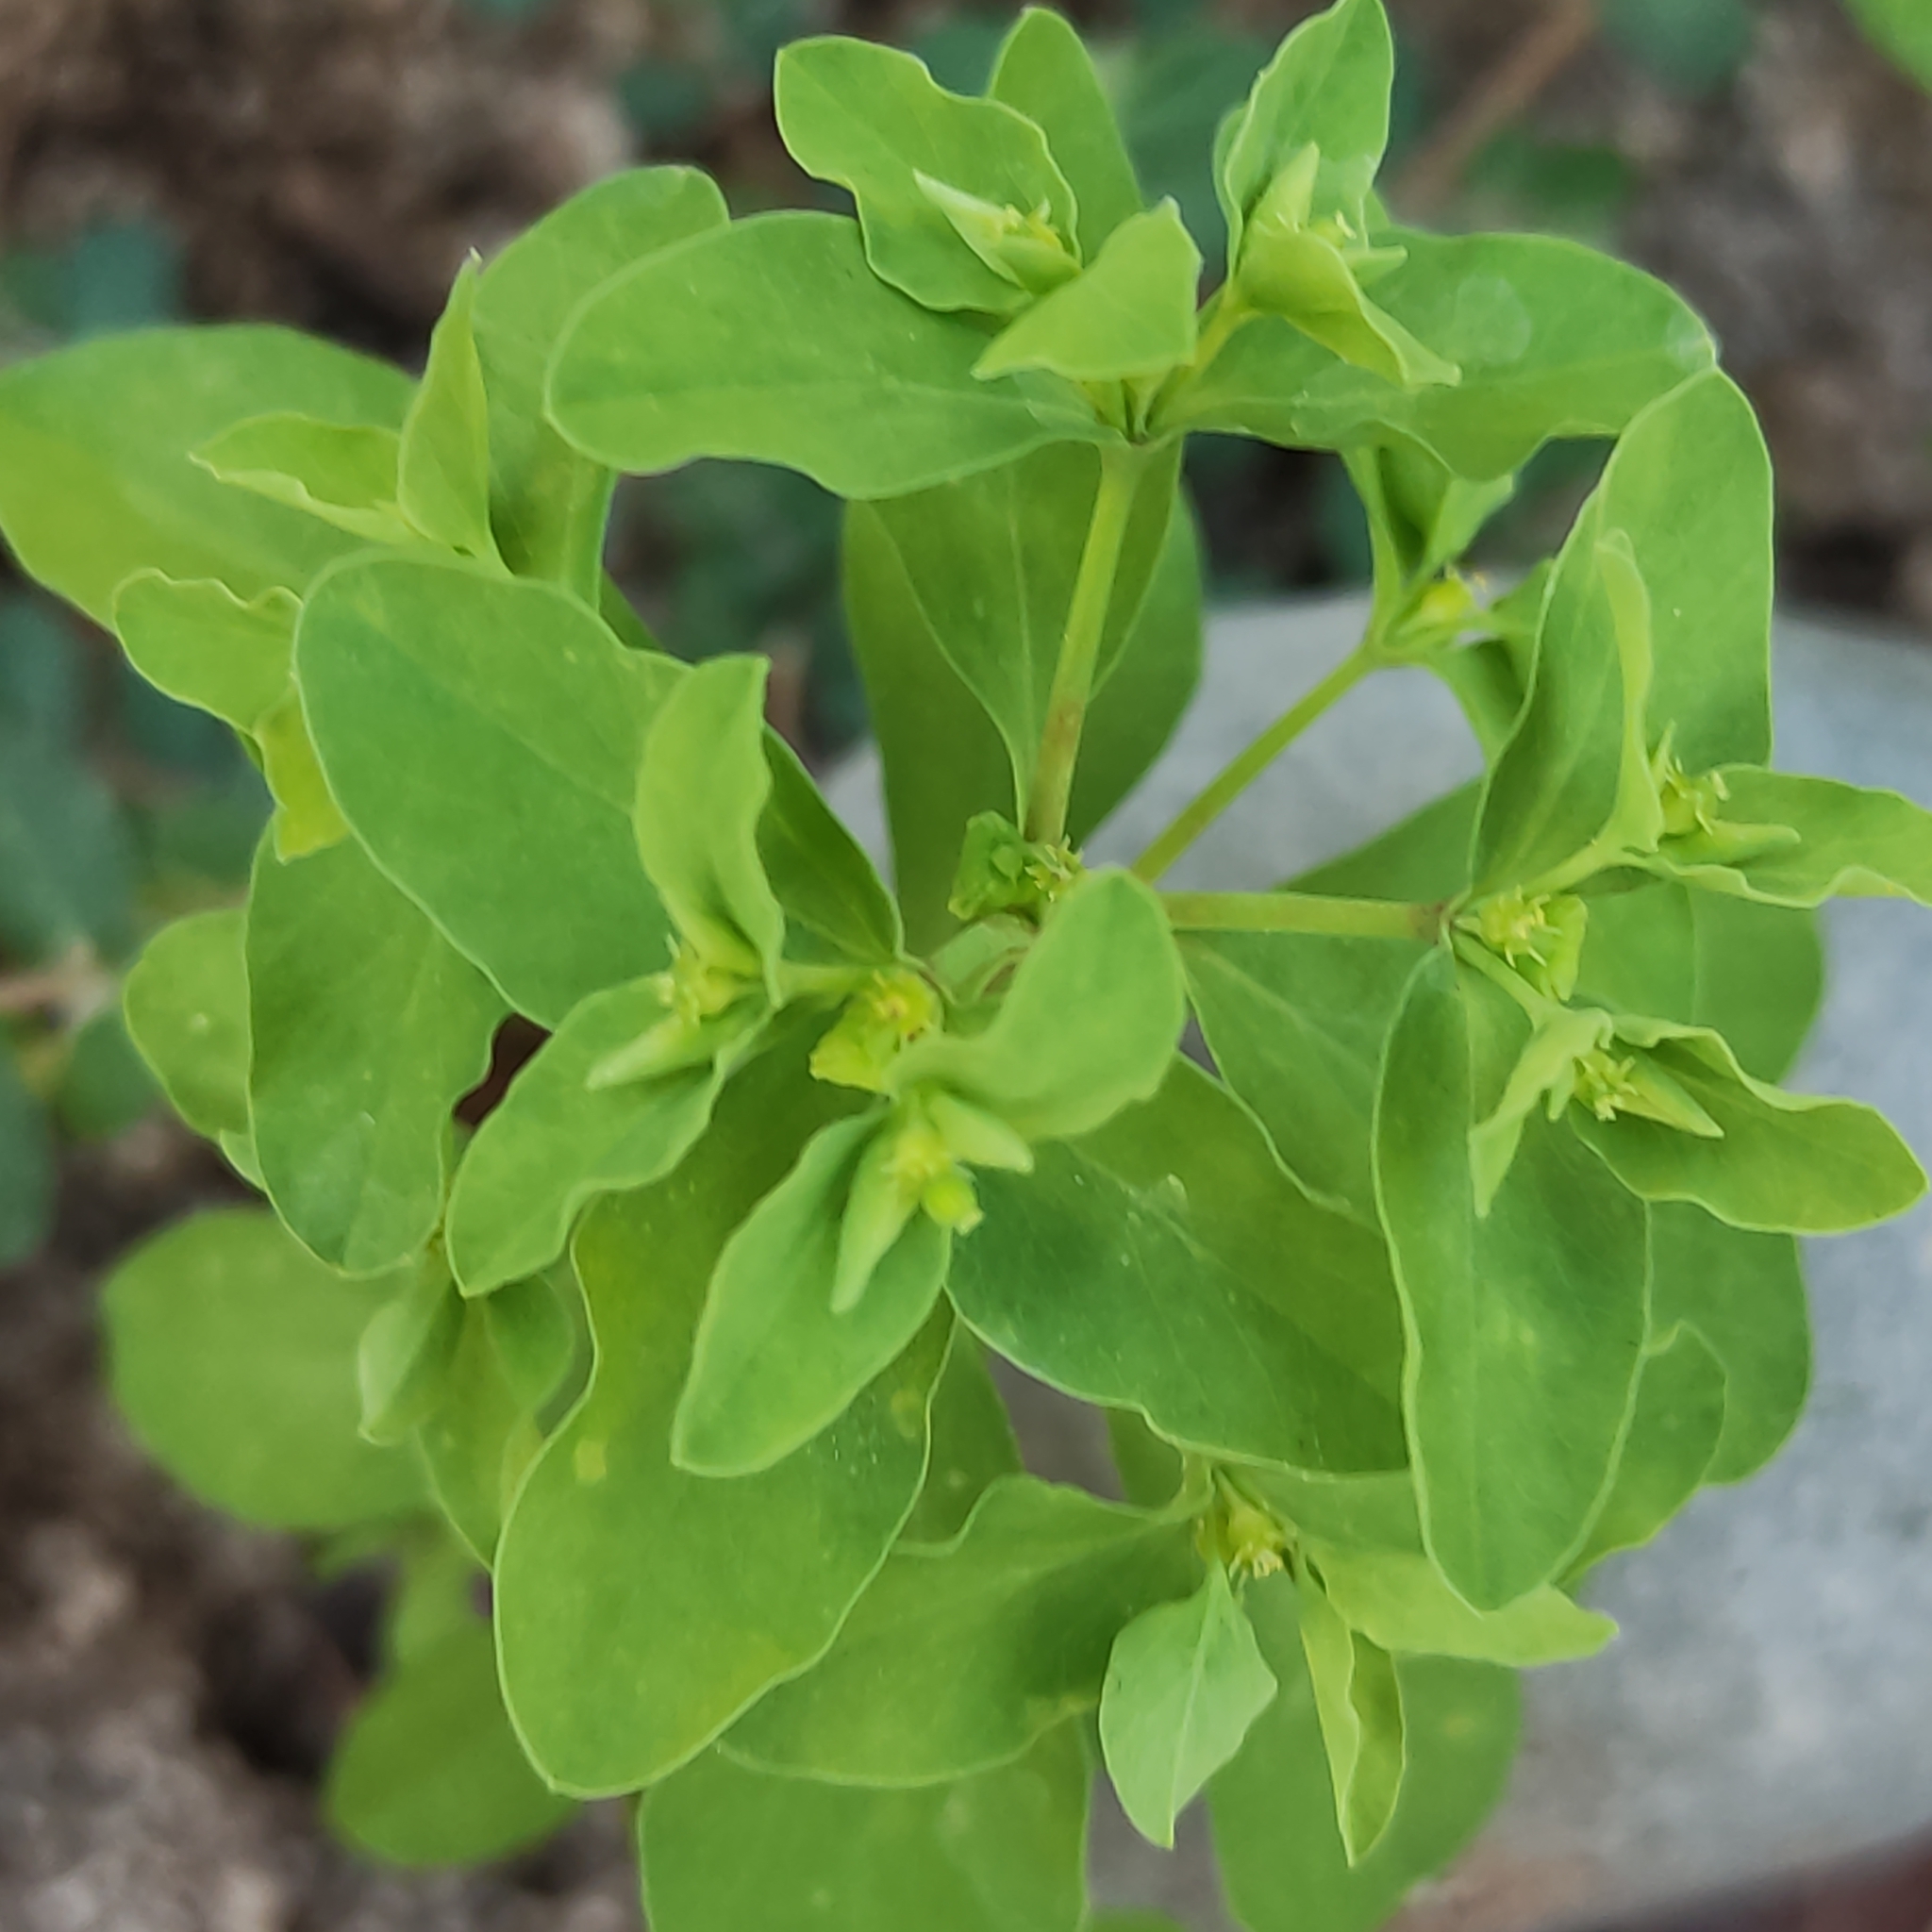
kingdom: Plantae
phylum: Tracheophyta
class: Magnoliopsida
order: Malpighiales
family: Euphorbiaceae
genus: Euphorbia
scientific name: Euphorbia peplus
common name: Petty spurge
